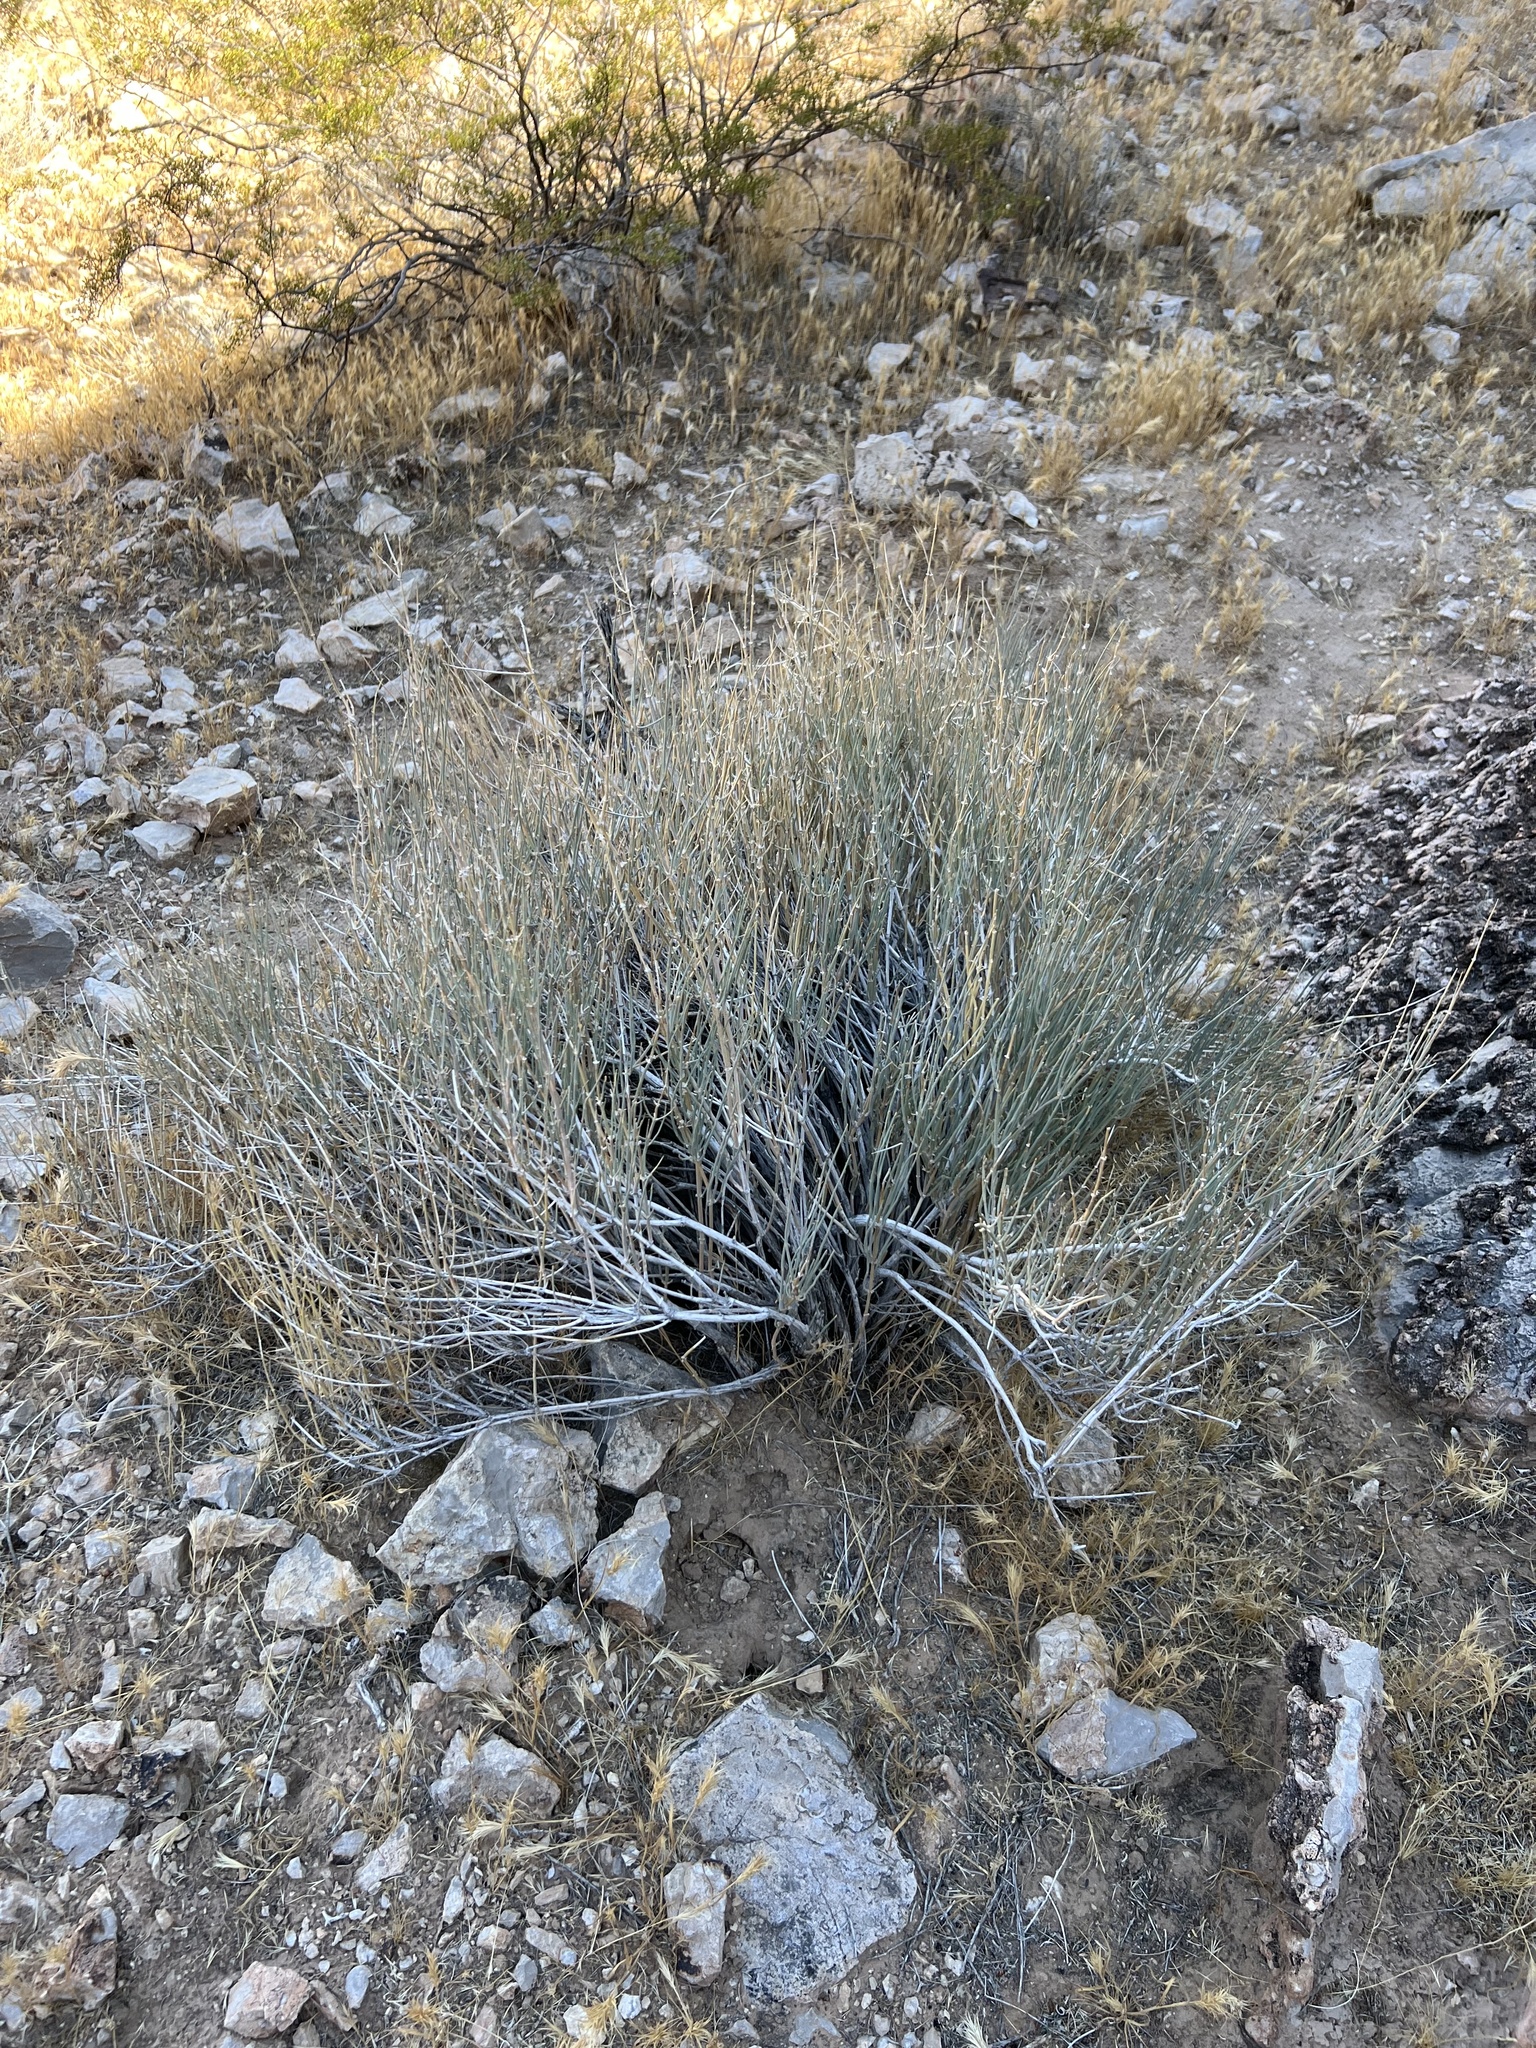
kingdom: Plantae
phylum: Tracheophyta
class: Gnetopsida
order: Ephedrales
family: Ephedraceae
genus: Ephedra
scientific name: Ephedra nevadensis
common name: Gray ephedra
